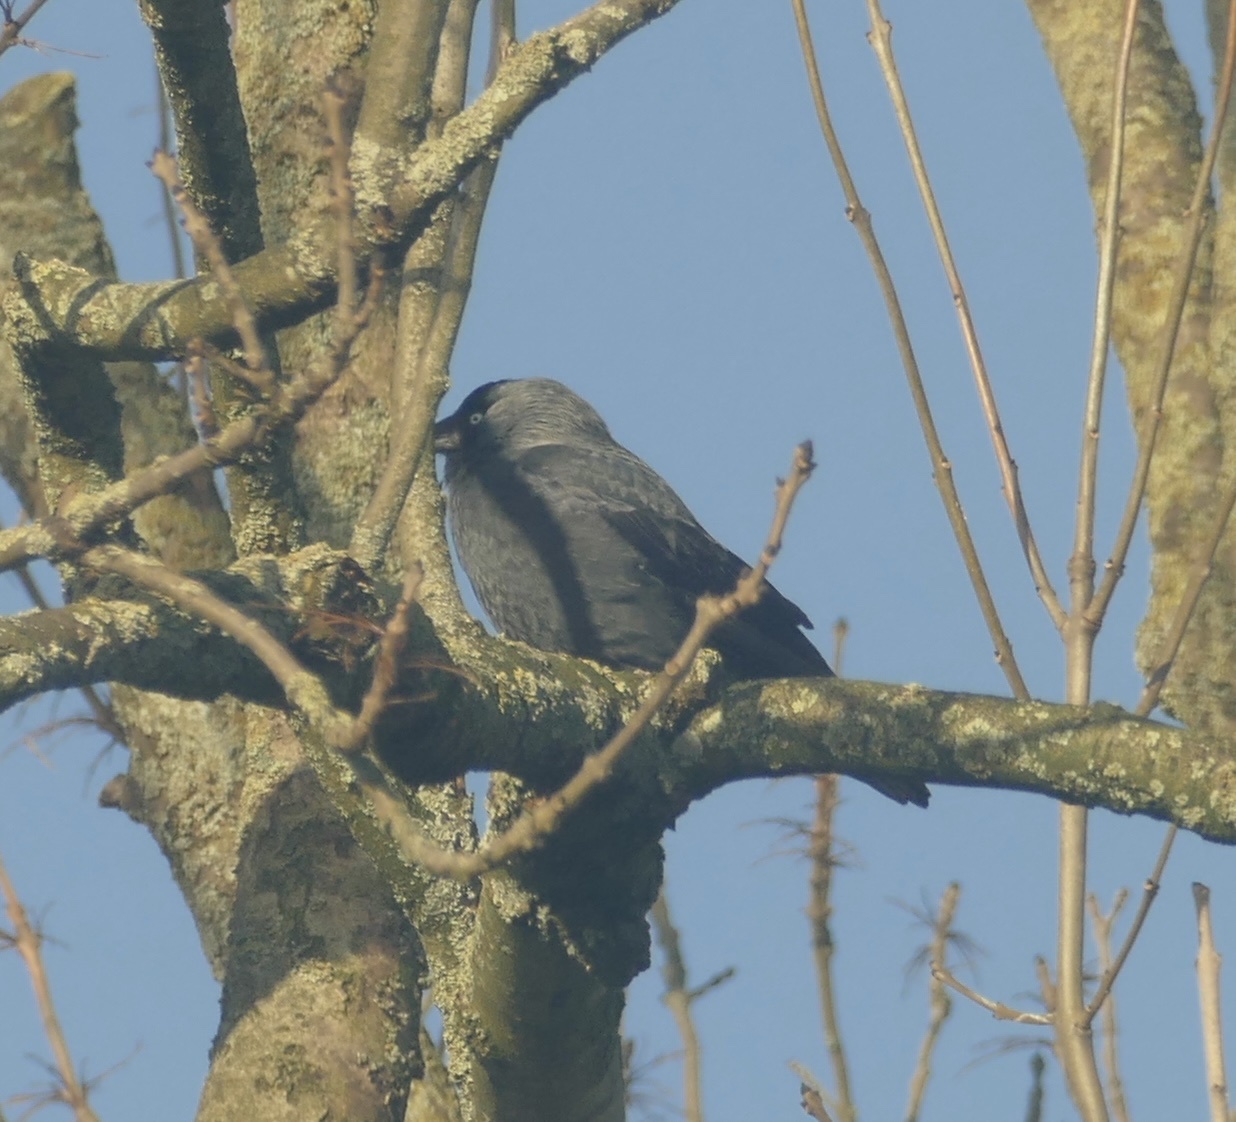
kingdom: Animalia
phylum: Chordata
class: Aves
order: Passeriformes
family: Corvidae
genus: Coloeus
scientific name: Coloeus monedula
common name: Western jackdaw
